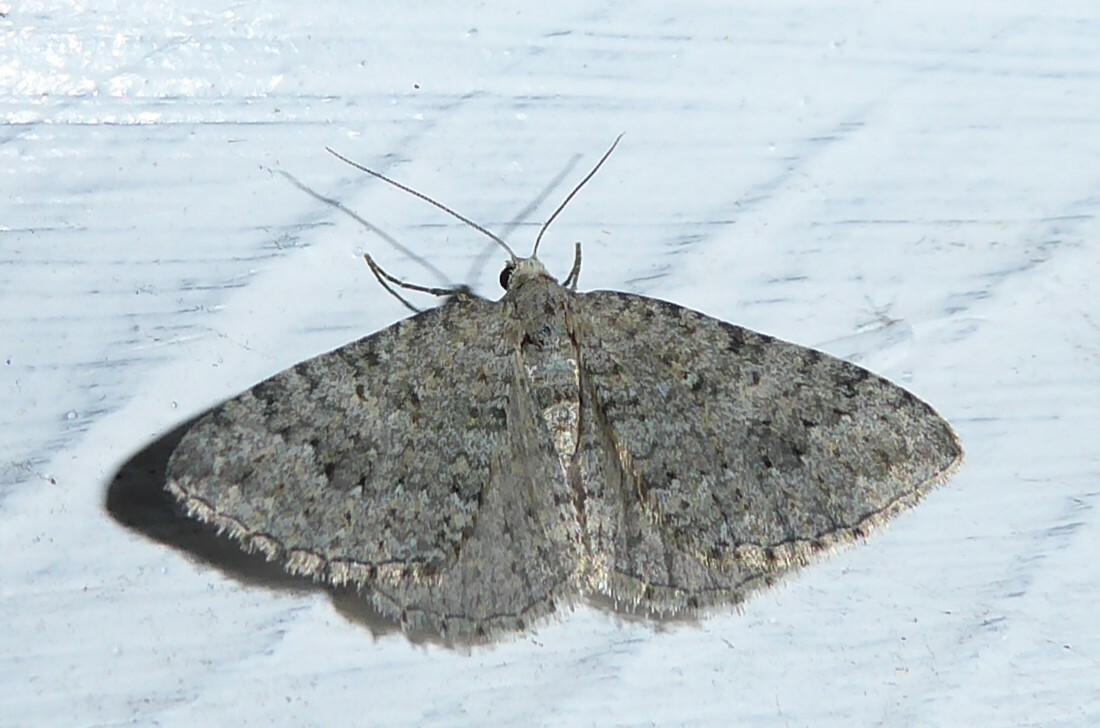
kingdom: Animalia
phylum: Arthropoda
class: Insecta
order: Lepidoptera
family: Geometridae
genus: Helastia
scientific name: Helastia corcularia
